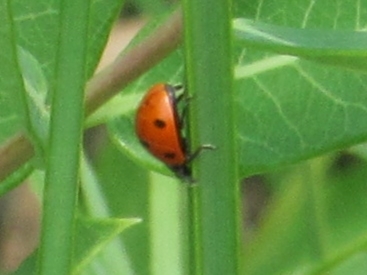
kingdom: Animalia
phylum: Arthropoda
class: Insecta
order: Coleoptera
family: Coccinellidae
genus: Coccinella
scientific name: Coccinella septempunctata
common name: Sevenspotted lady beetle
